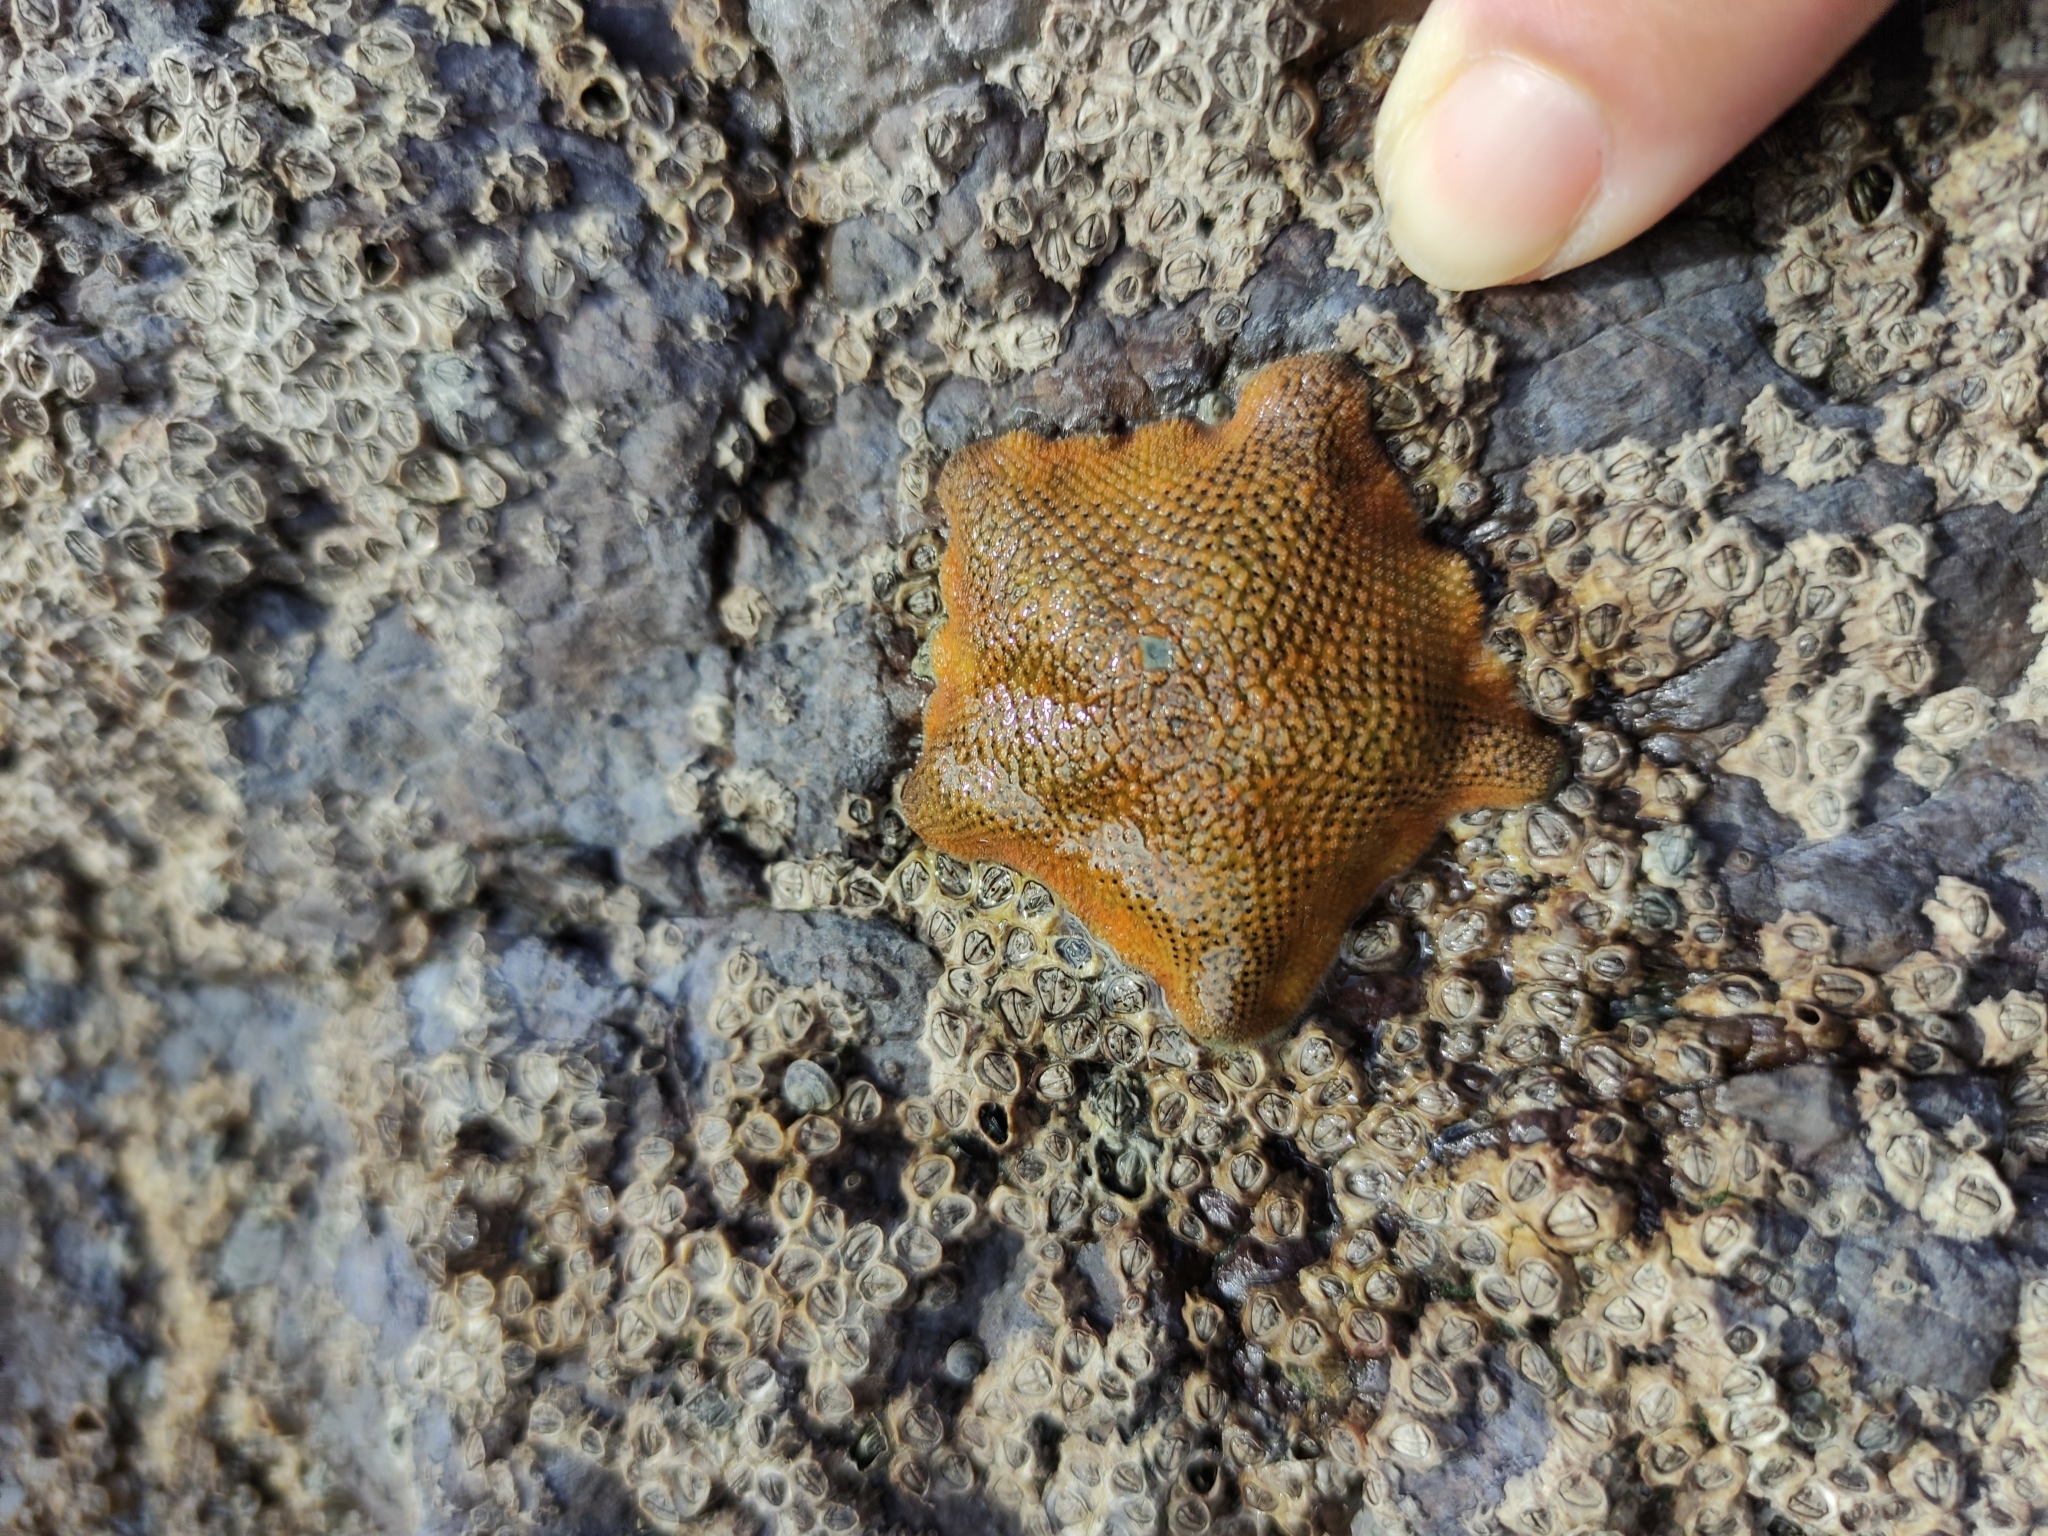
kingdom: Animalia
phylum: Echinodermata
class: Asteroidea
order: Valvatida
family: Asterinidae
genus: Patiriella
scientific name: Patiriella regularis
